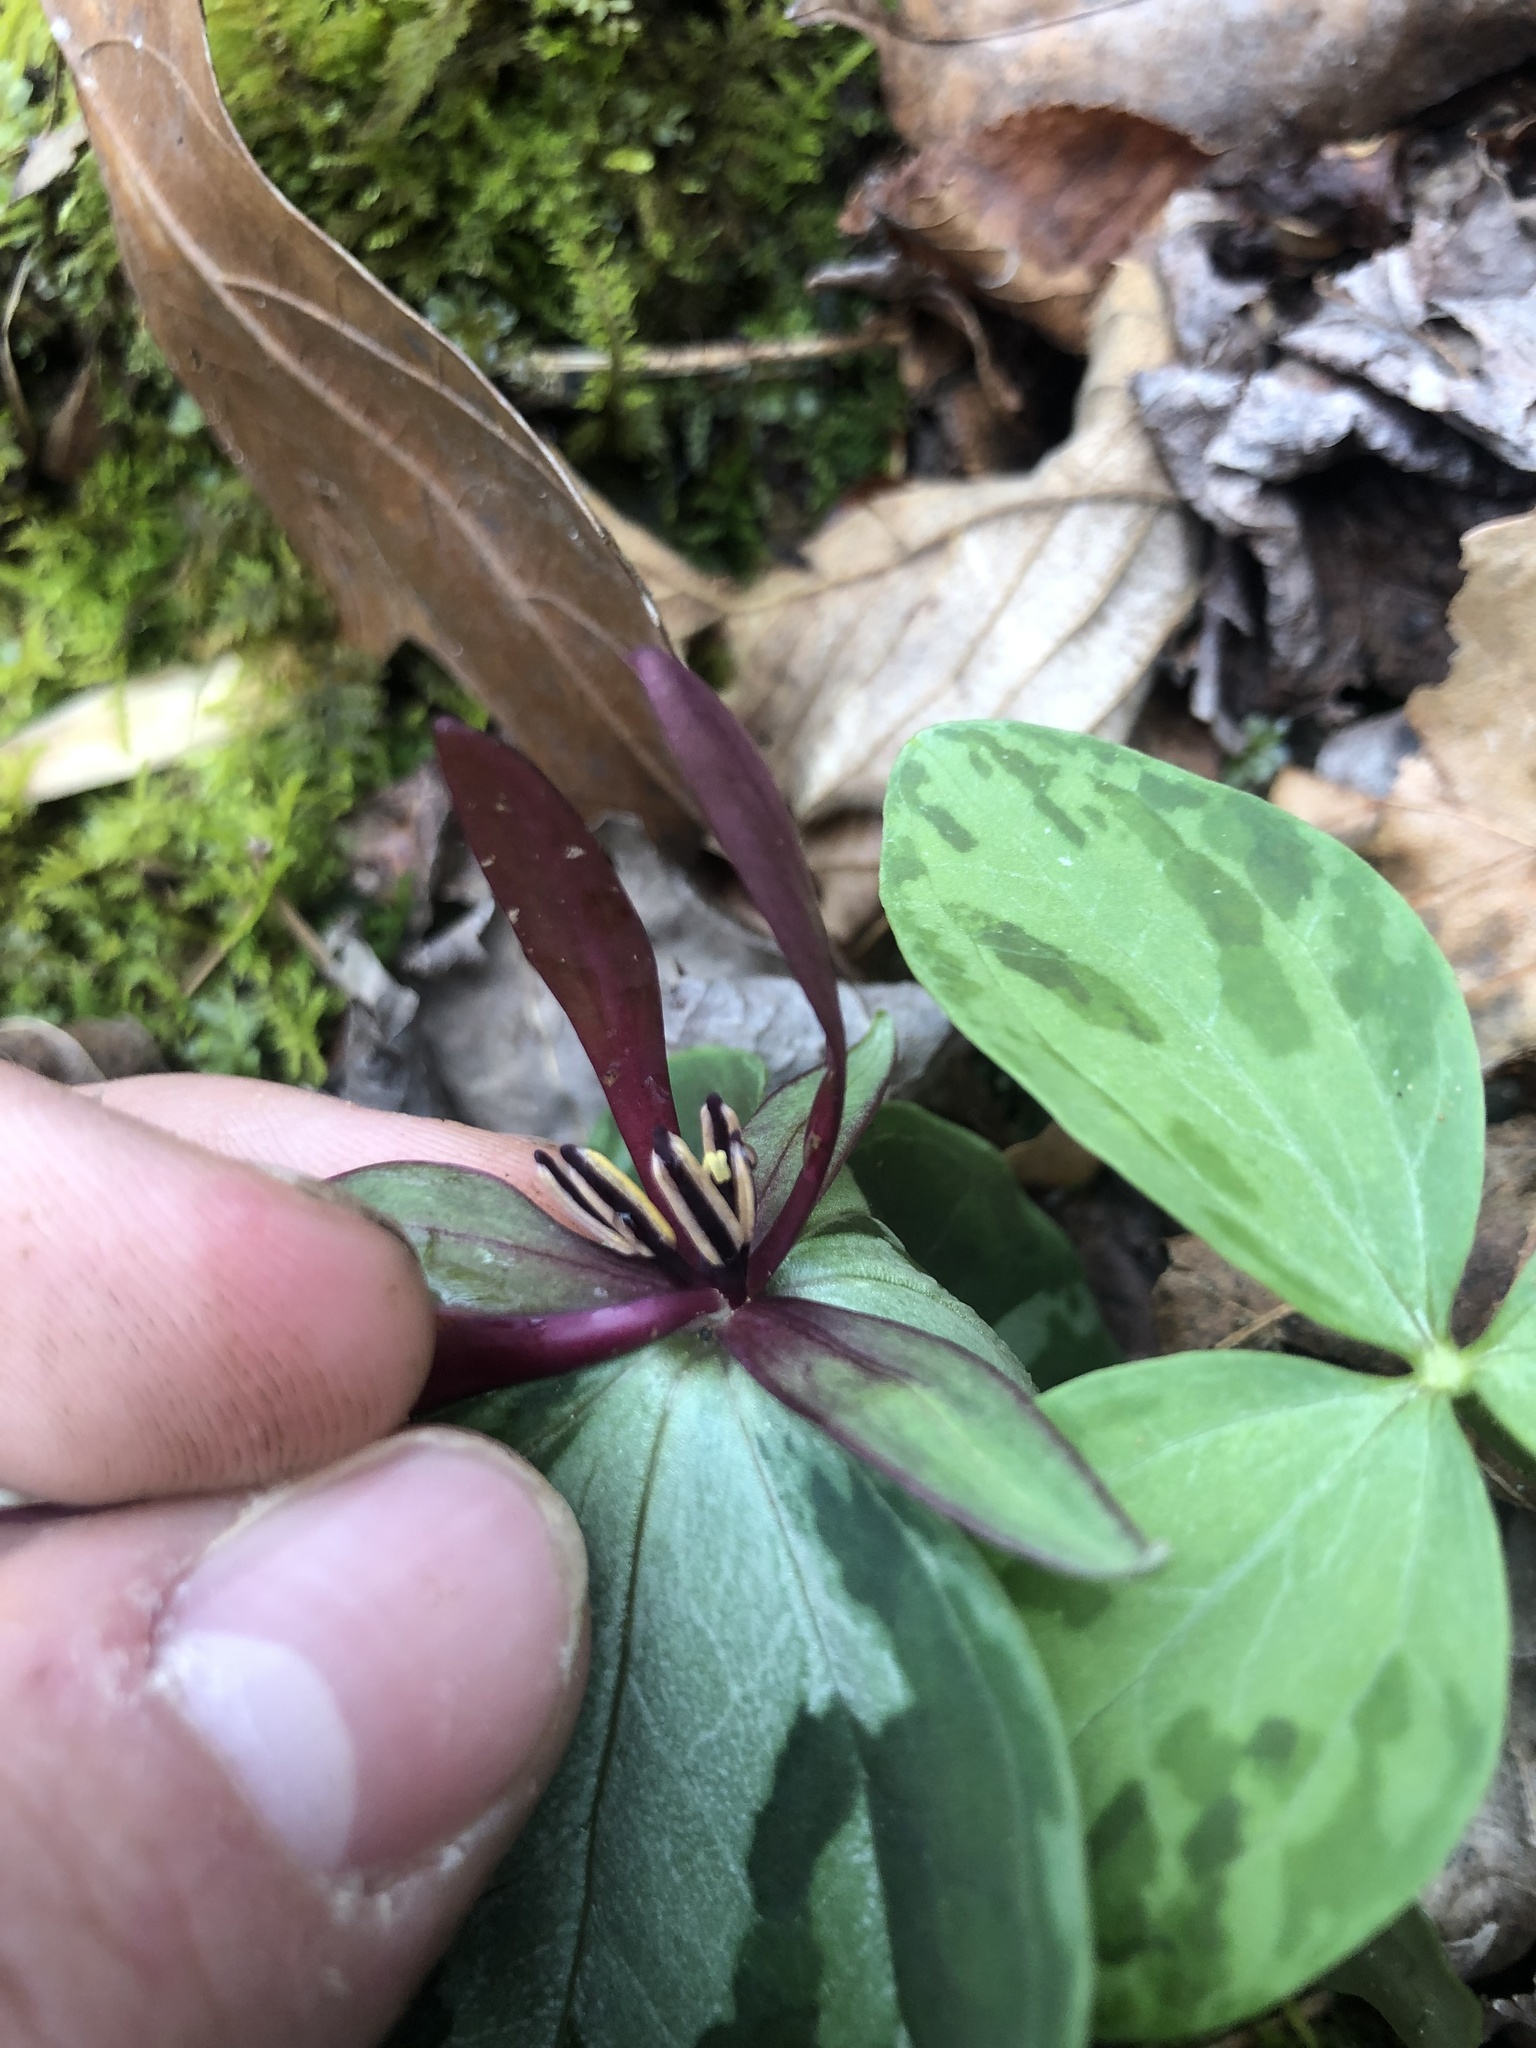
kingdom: Plantae
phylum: Tracheophyta
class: Liliopsida
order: Liliales
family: Melanthiaceae
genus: Trillium
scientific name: Trillium foetidissimum
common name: Mississippi river trillium
